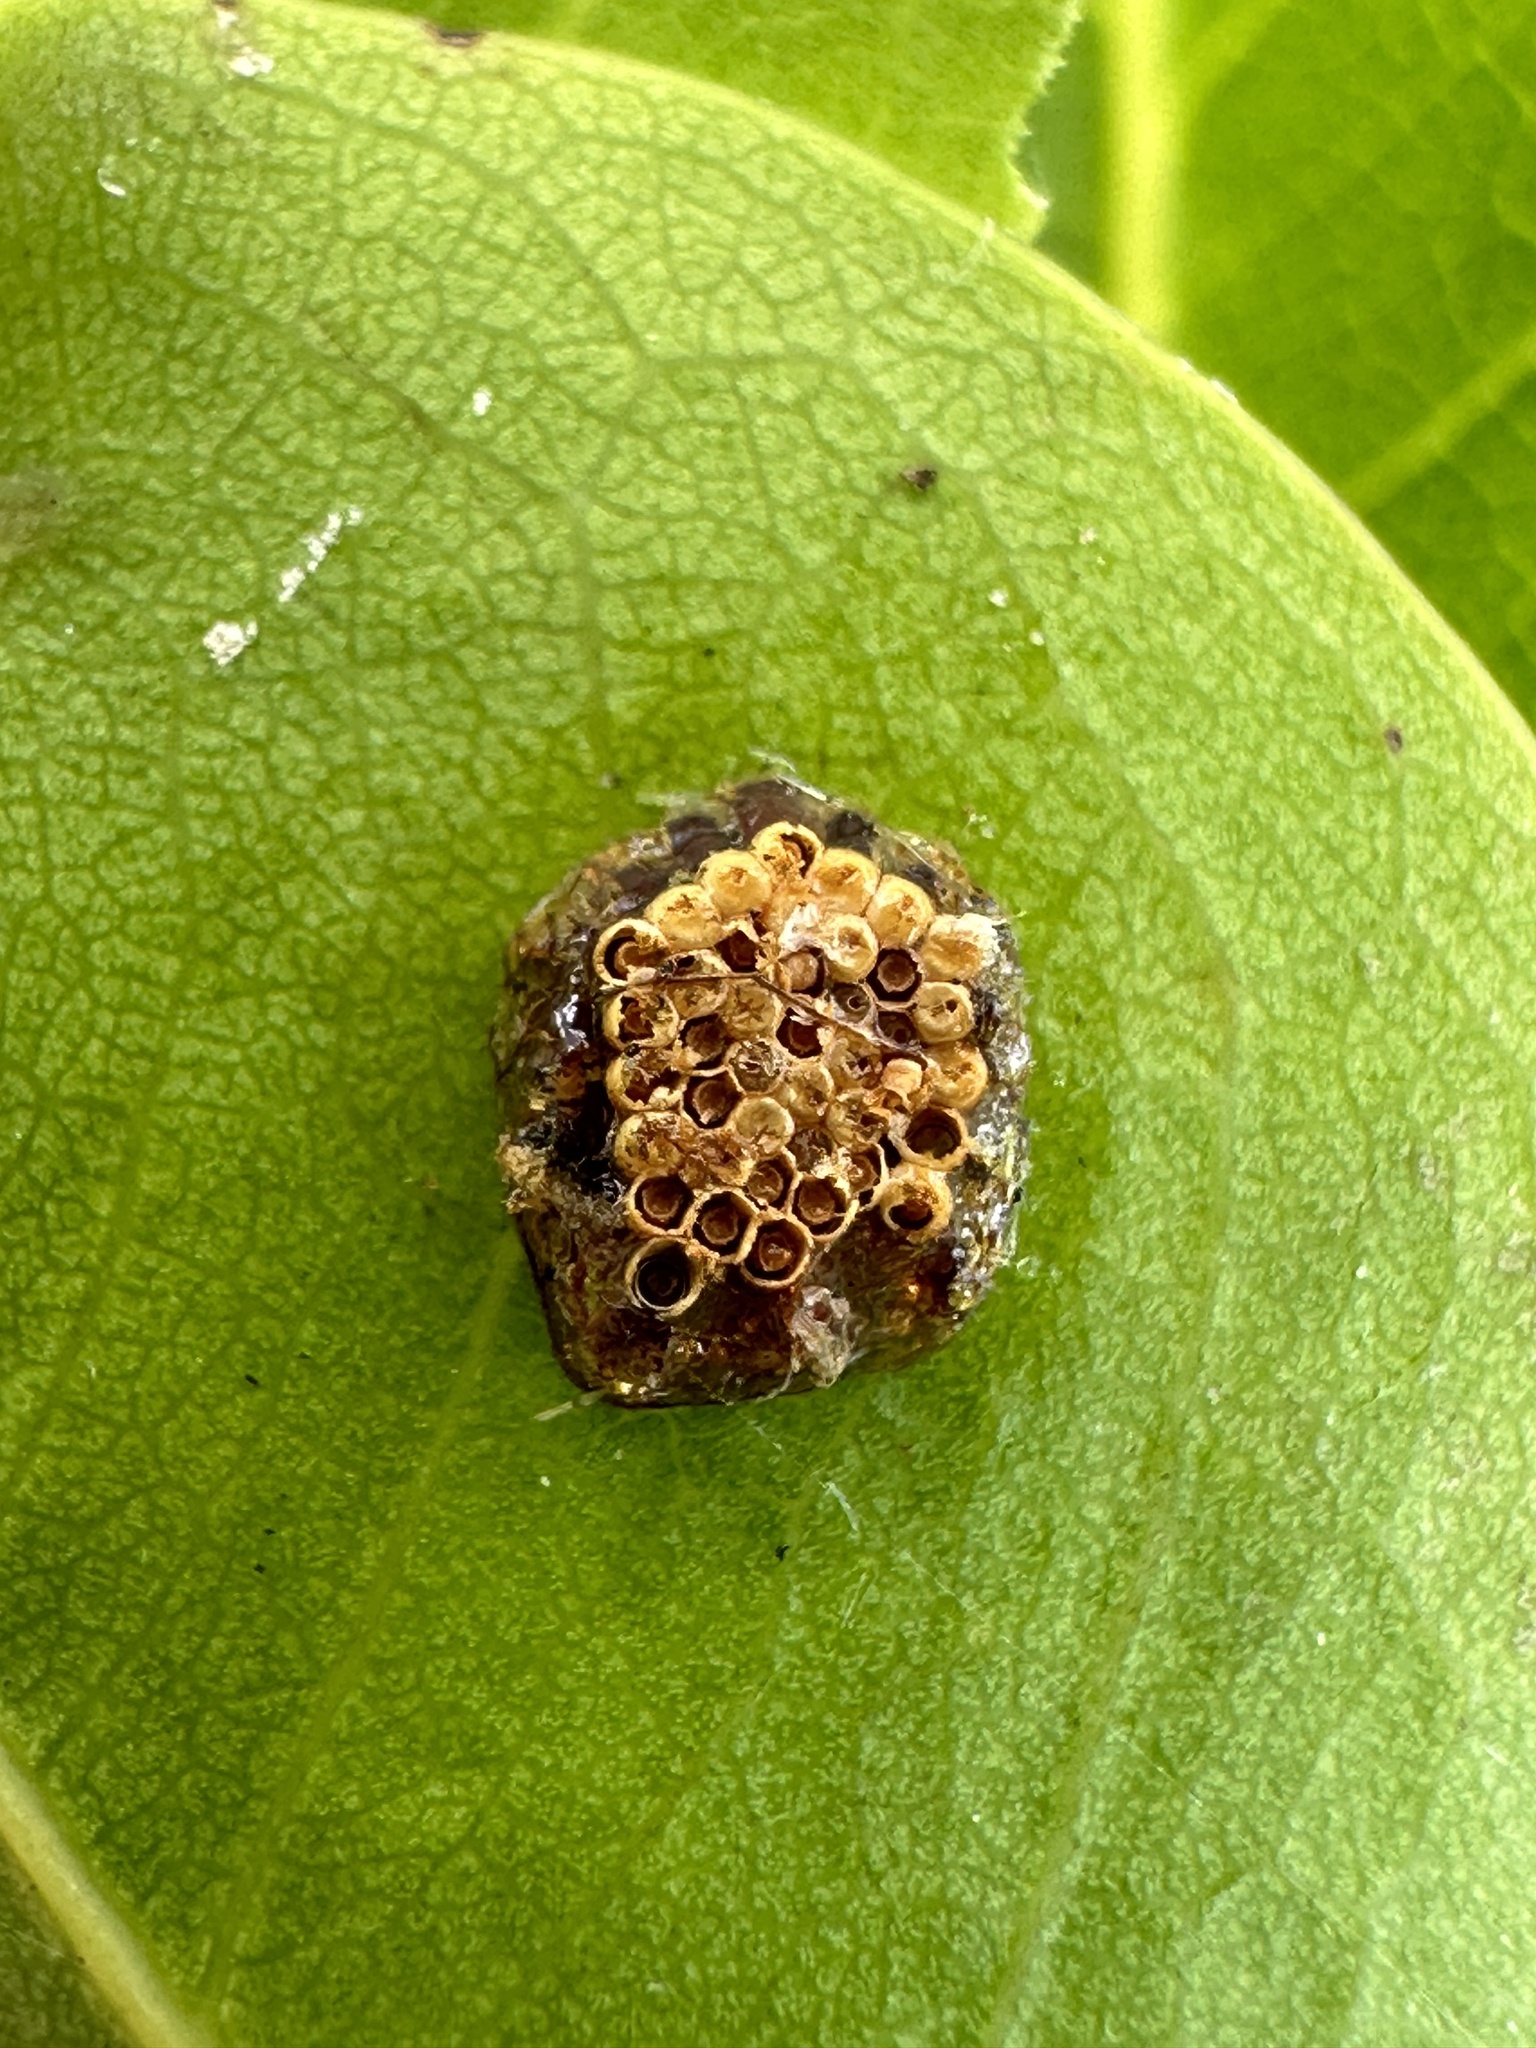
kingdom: Animalia
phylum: Arthropoda
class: Insecta
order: Hemiptera
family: Reduviidae
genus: Zelus
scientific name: Zelus longipes
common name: Milkweed assassin bug
